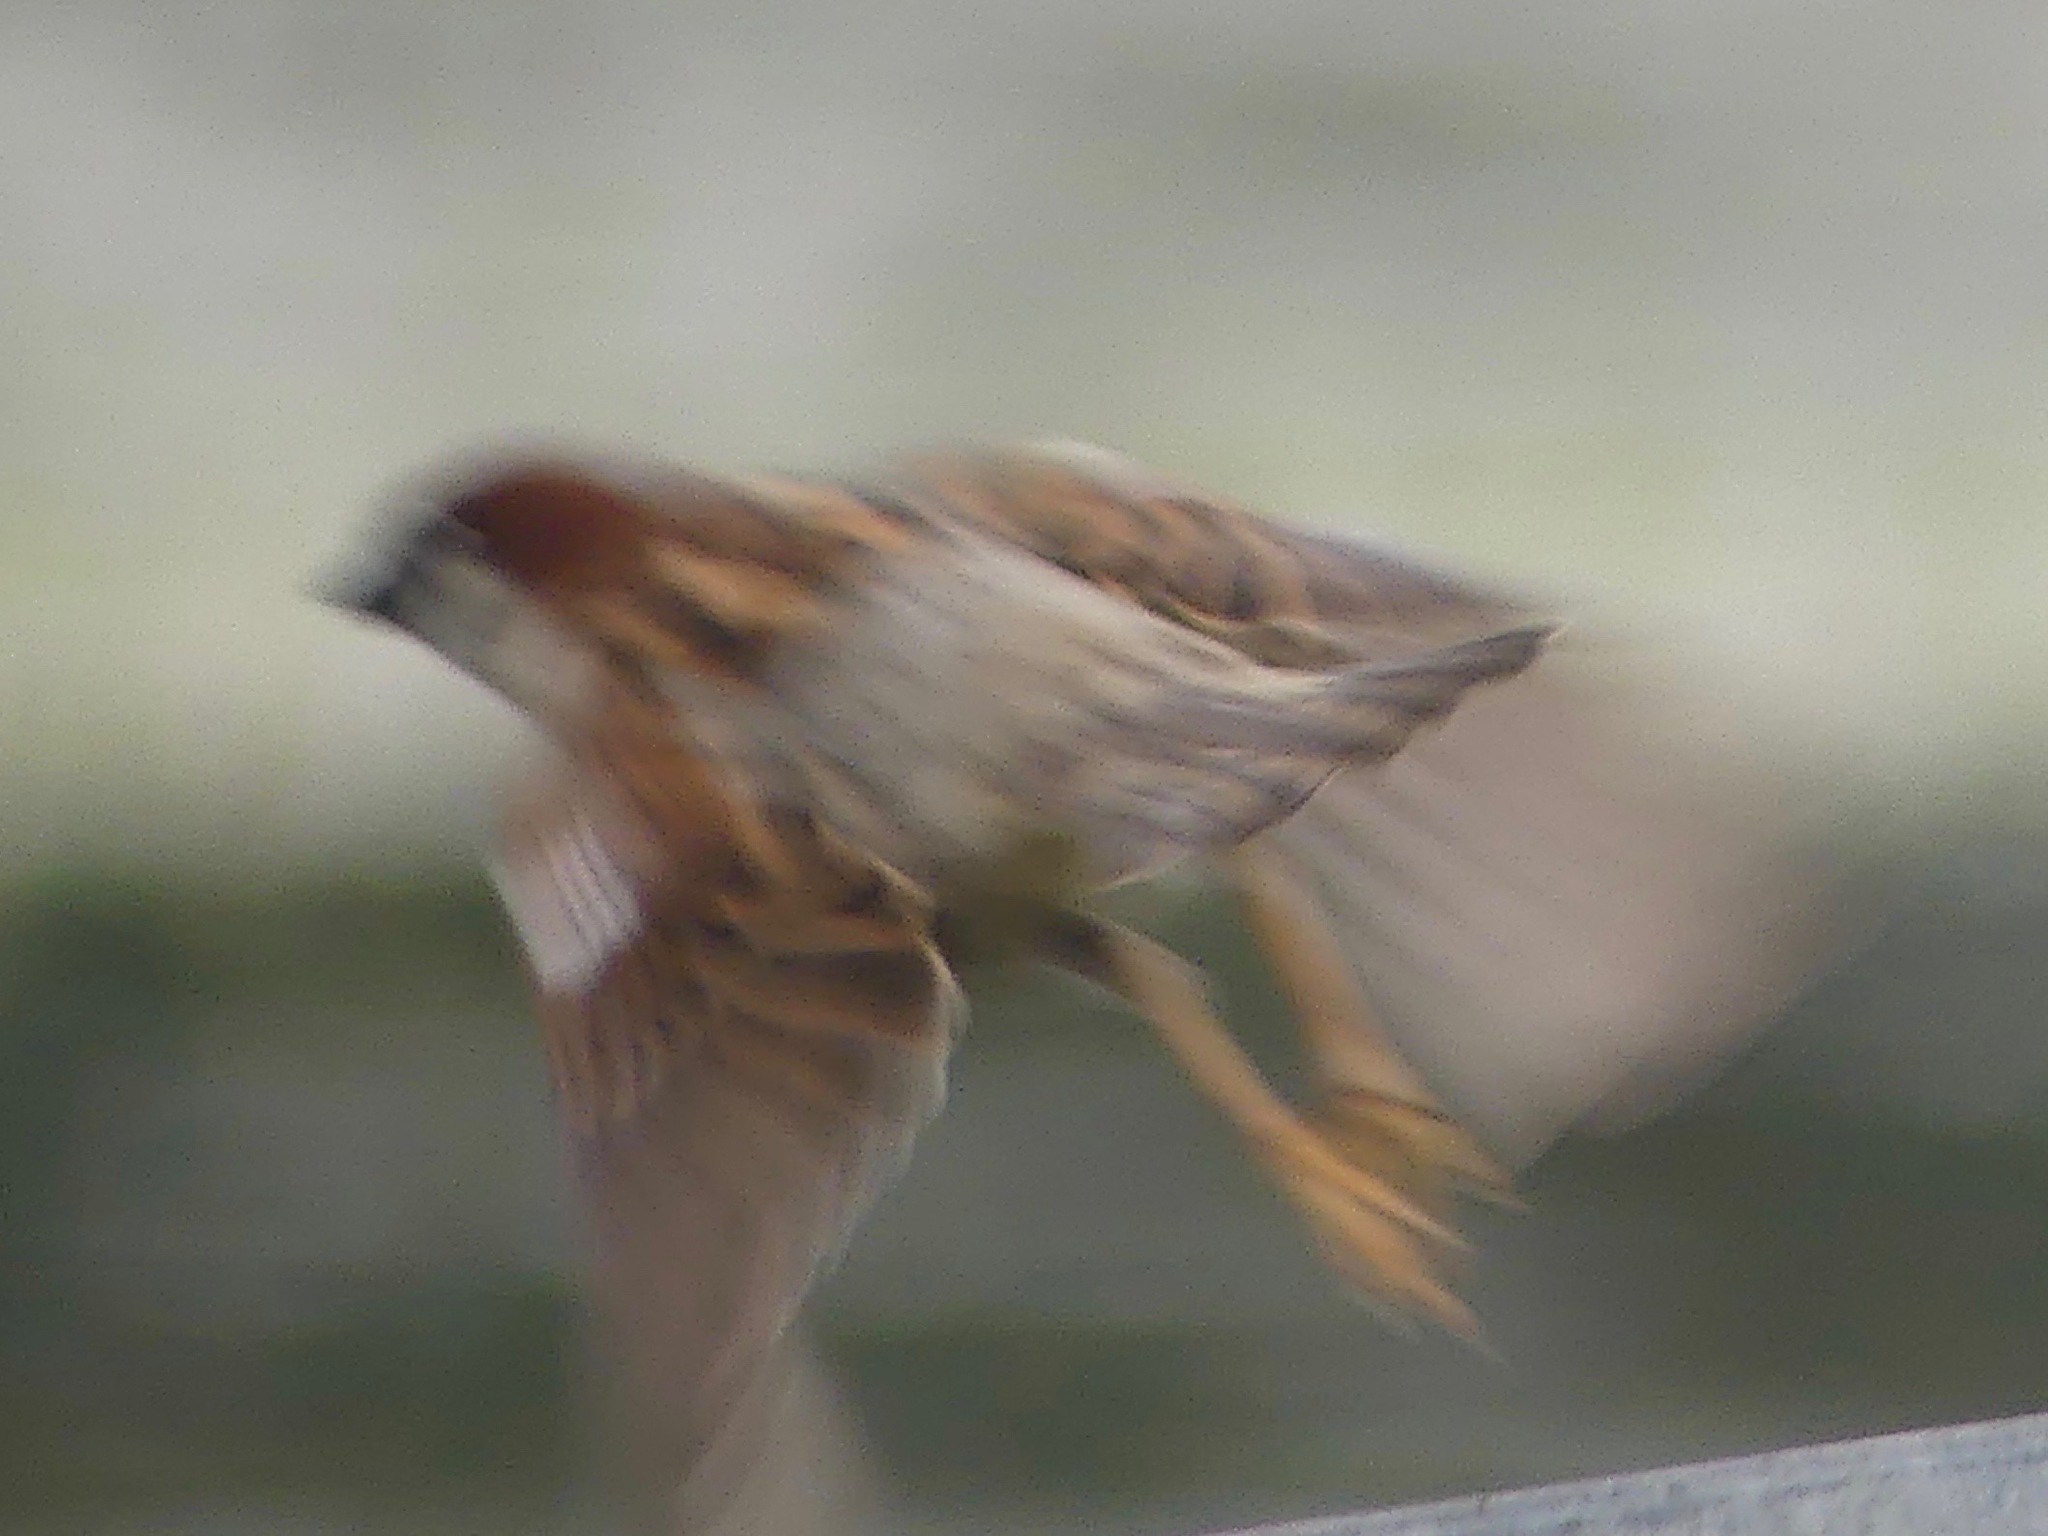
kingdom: Animalia
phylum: Chordata
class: Aves
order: Passeriformes
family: Passeridae
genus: Passer
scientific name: Passer domesticus
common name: House sparrow
